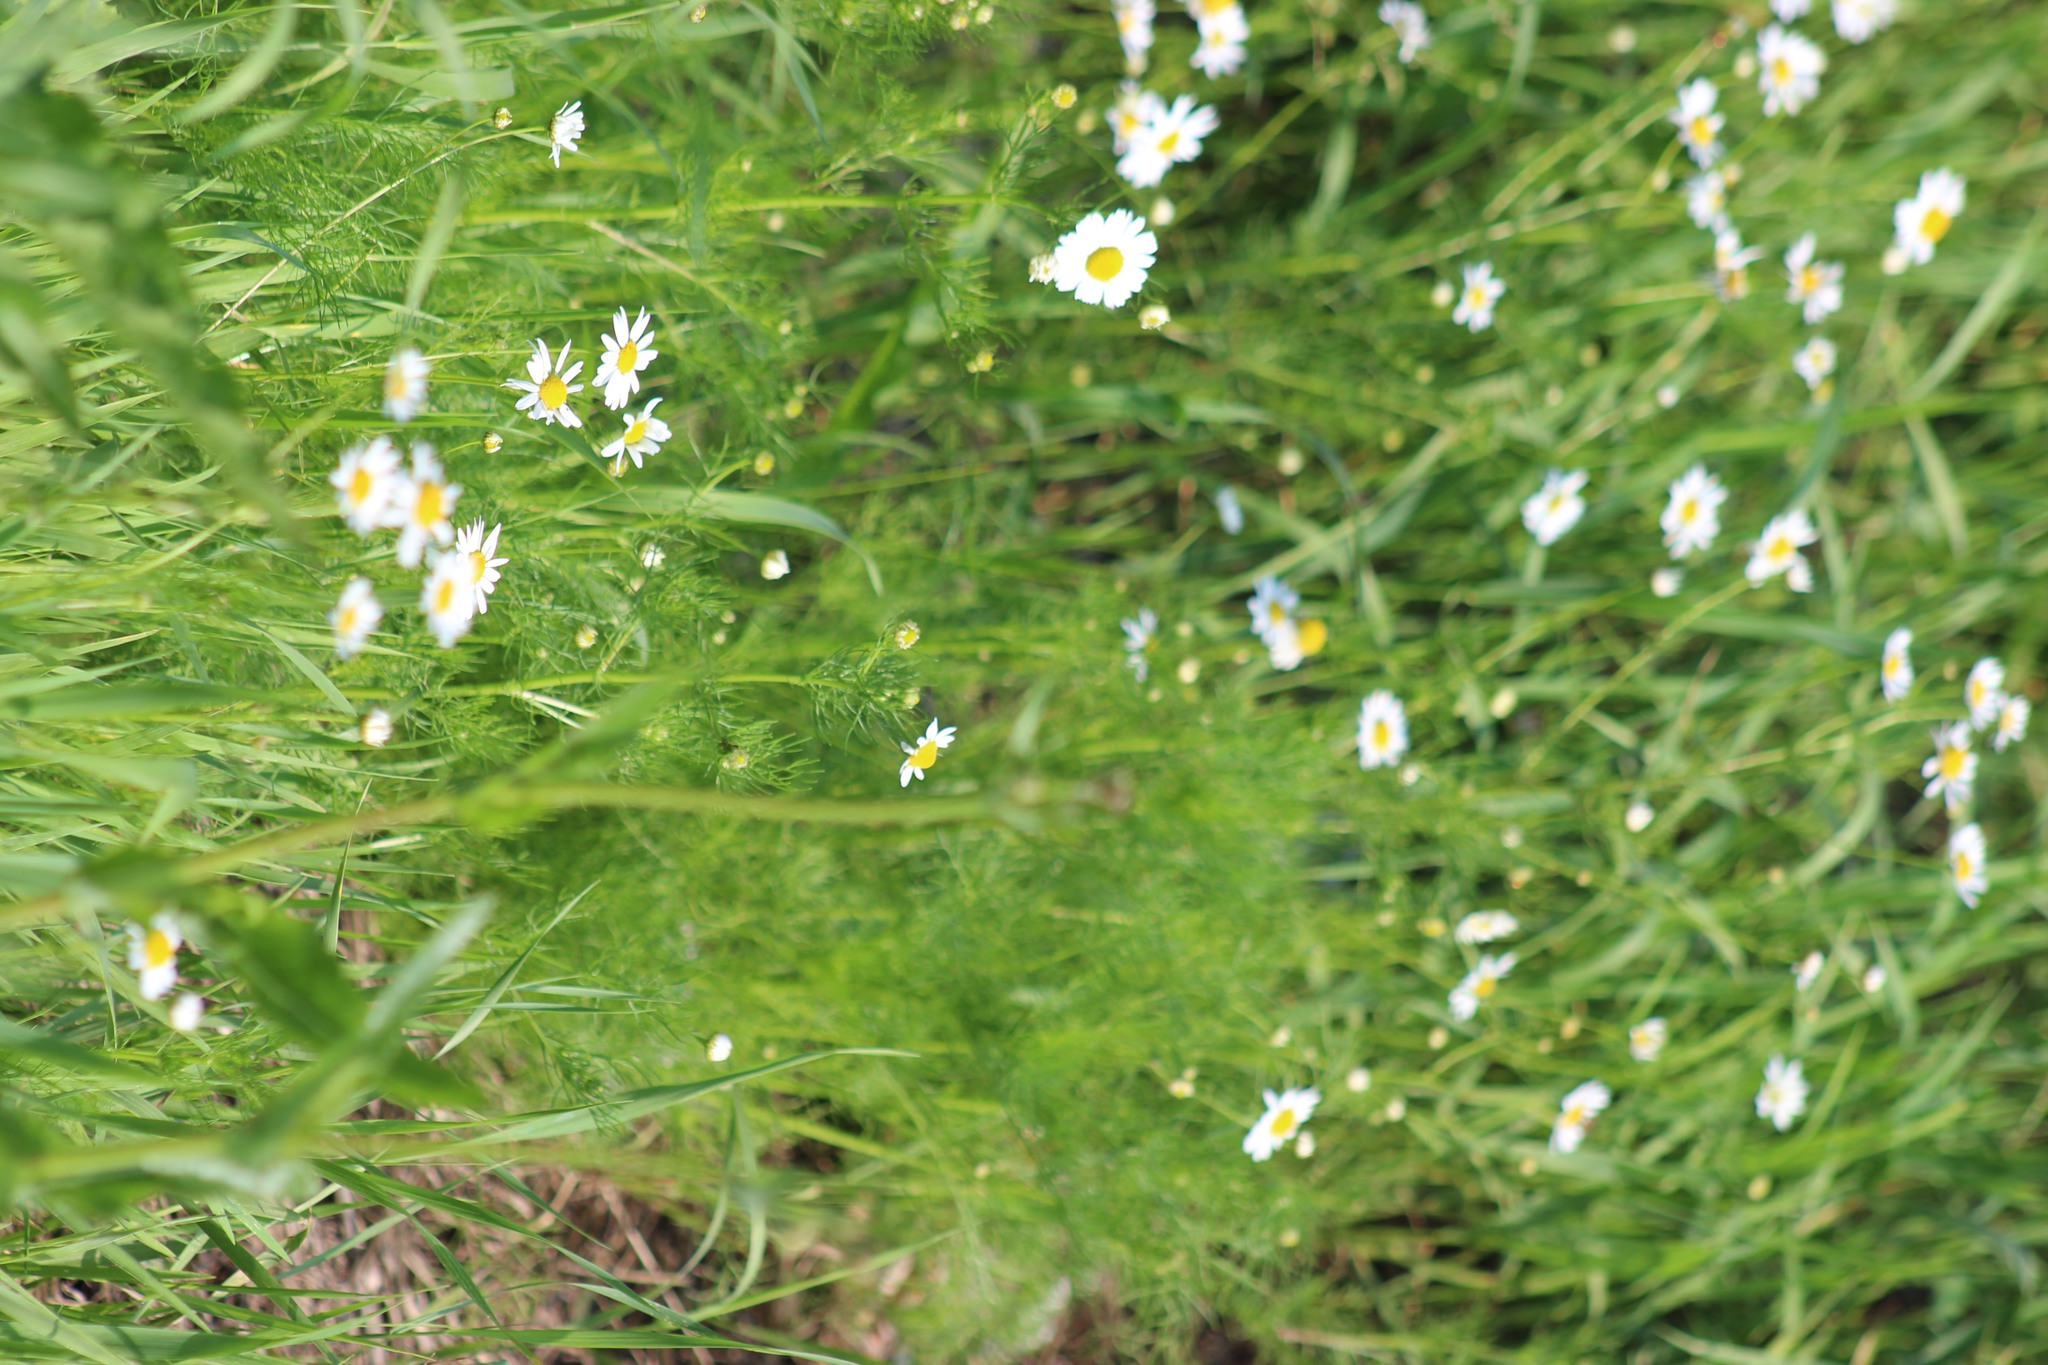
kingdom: Plantae
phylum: Tracheophyta
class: Magnoliopsida
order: Asterales
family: Asteraceae
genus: Tripleurospermum
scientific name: Tripleurospermum inodorum
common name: Scentless mayweed
